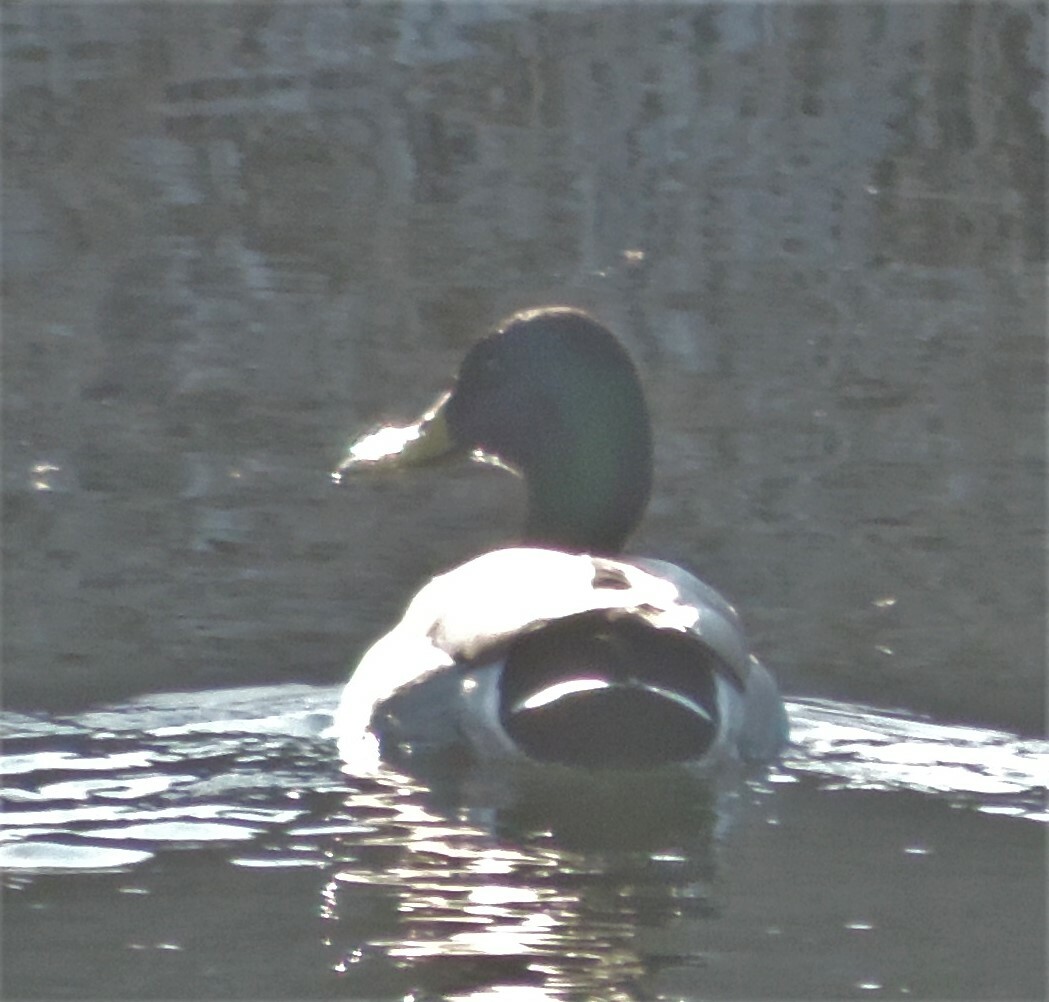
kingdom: Animalia
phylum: Chordata
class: Aves
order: Anseriformes
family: Anatidae
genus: Anas
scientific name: Anas platyrhynchos
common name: Mallard
